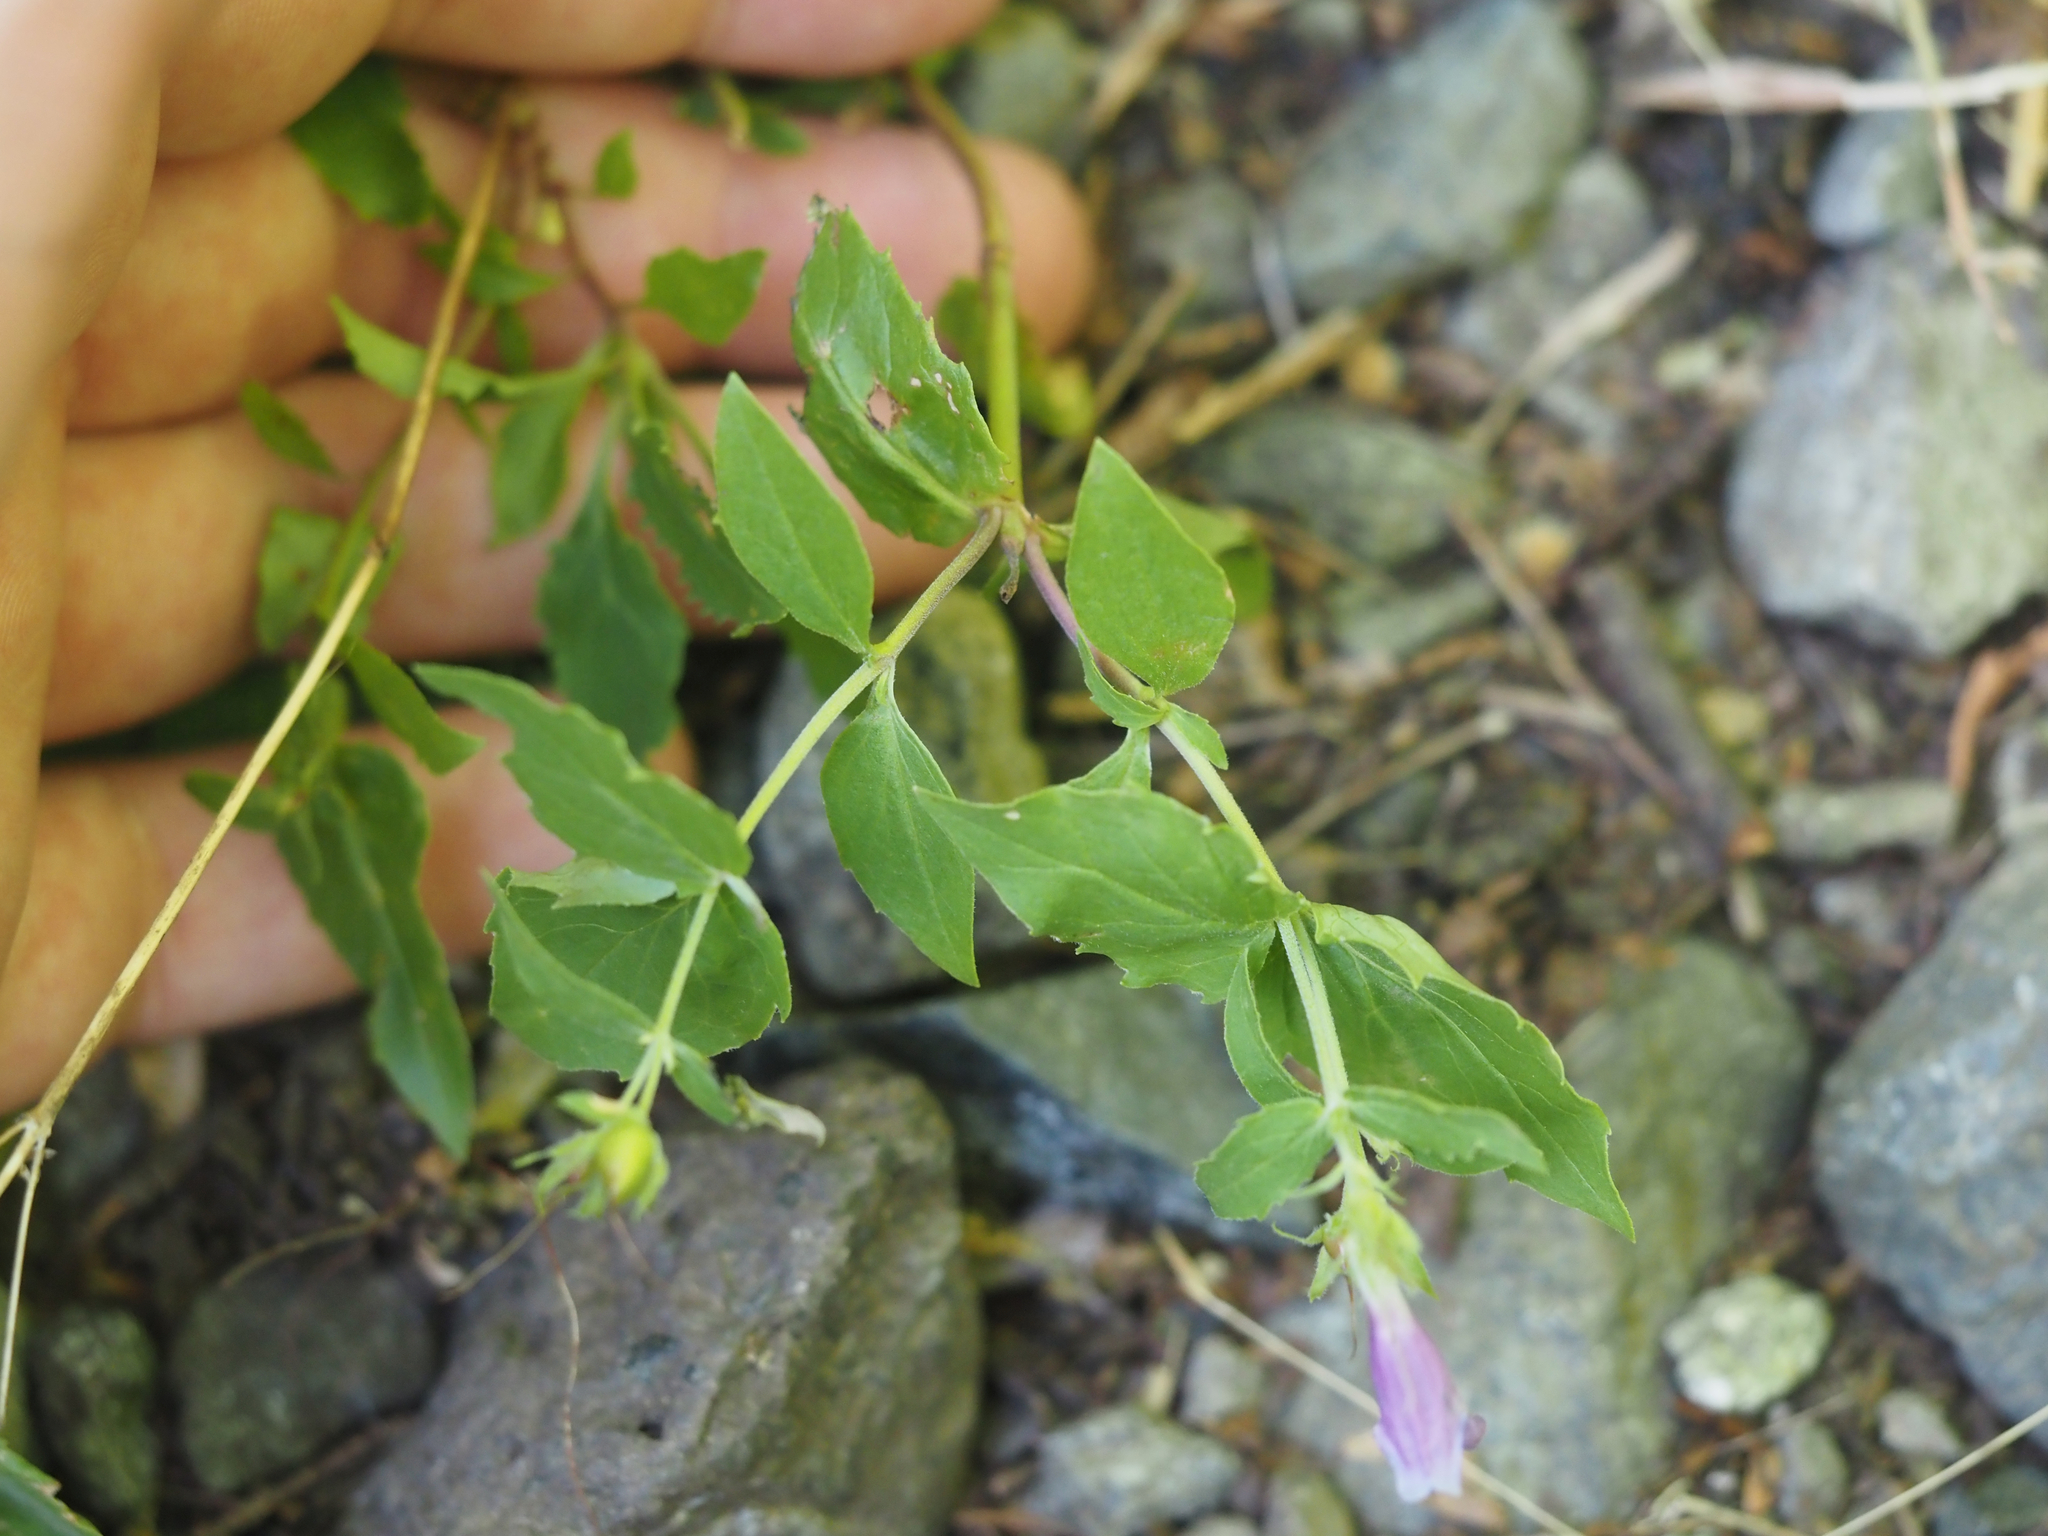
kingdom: Plantae
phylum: Tracheophyta
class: Magnoliopsida
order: Lamiales
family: Plantaginaceae
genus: Penstemon
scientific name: Penstemon serrulatus
